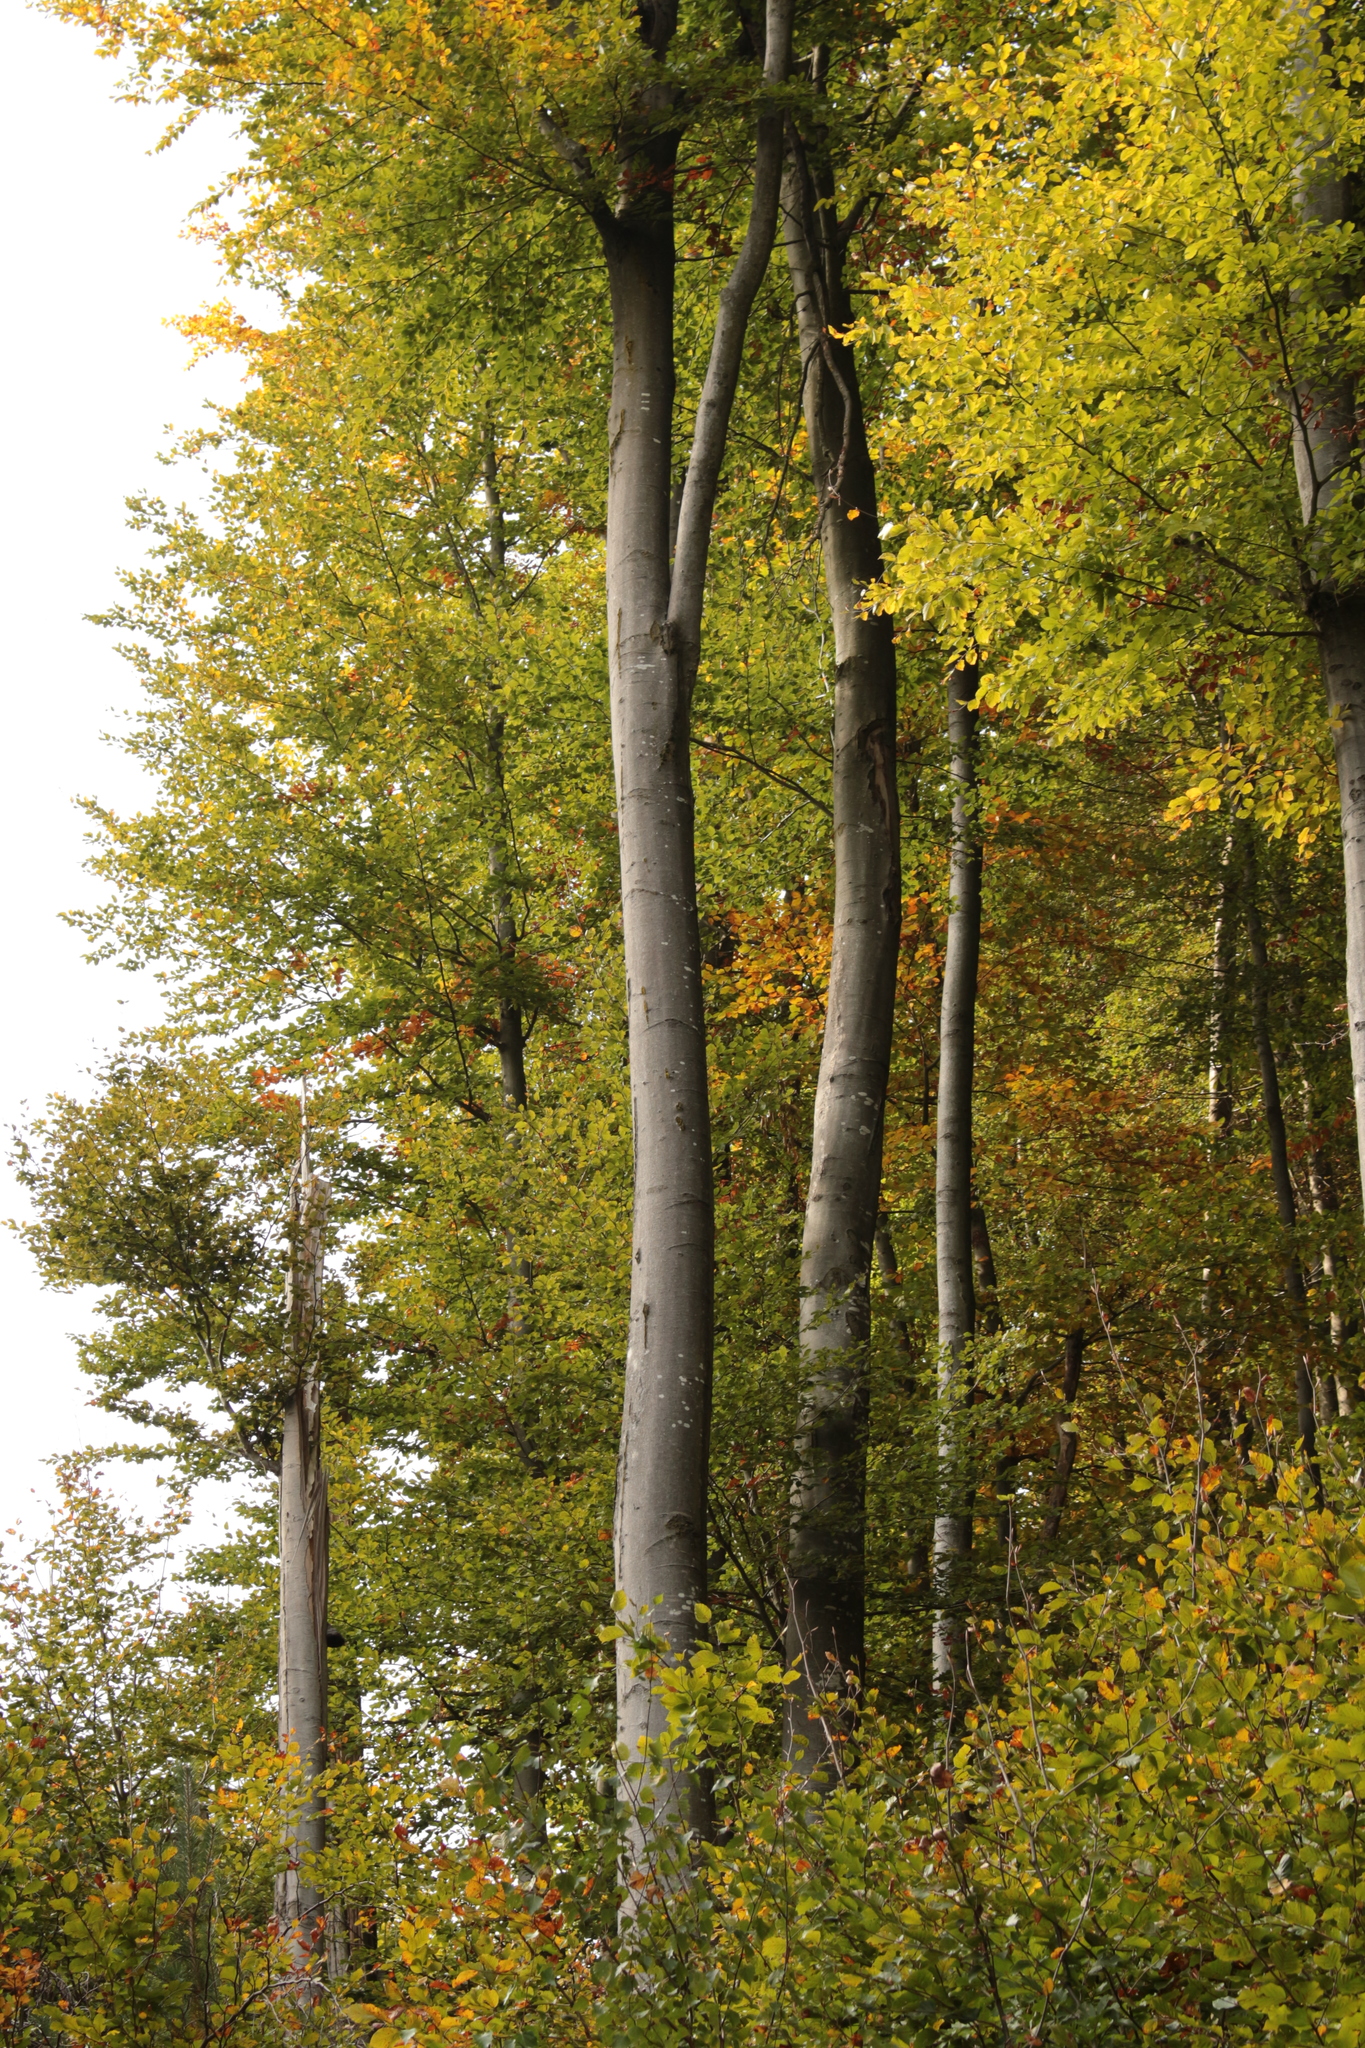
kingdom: Plantae
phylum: Tracheophyta
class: Magnoliopsida
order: Fagales
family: Fagaceae
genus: Fagus
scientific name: Fagus sylvatica
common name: Beech
